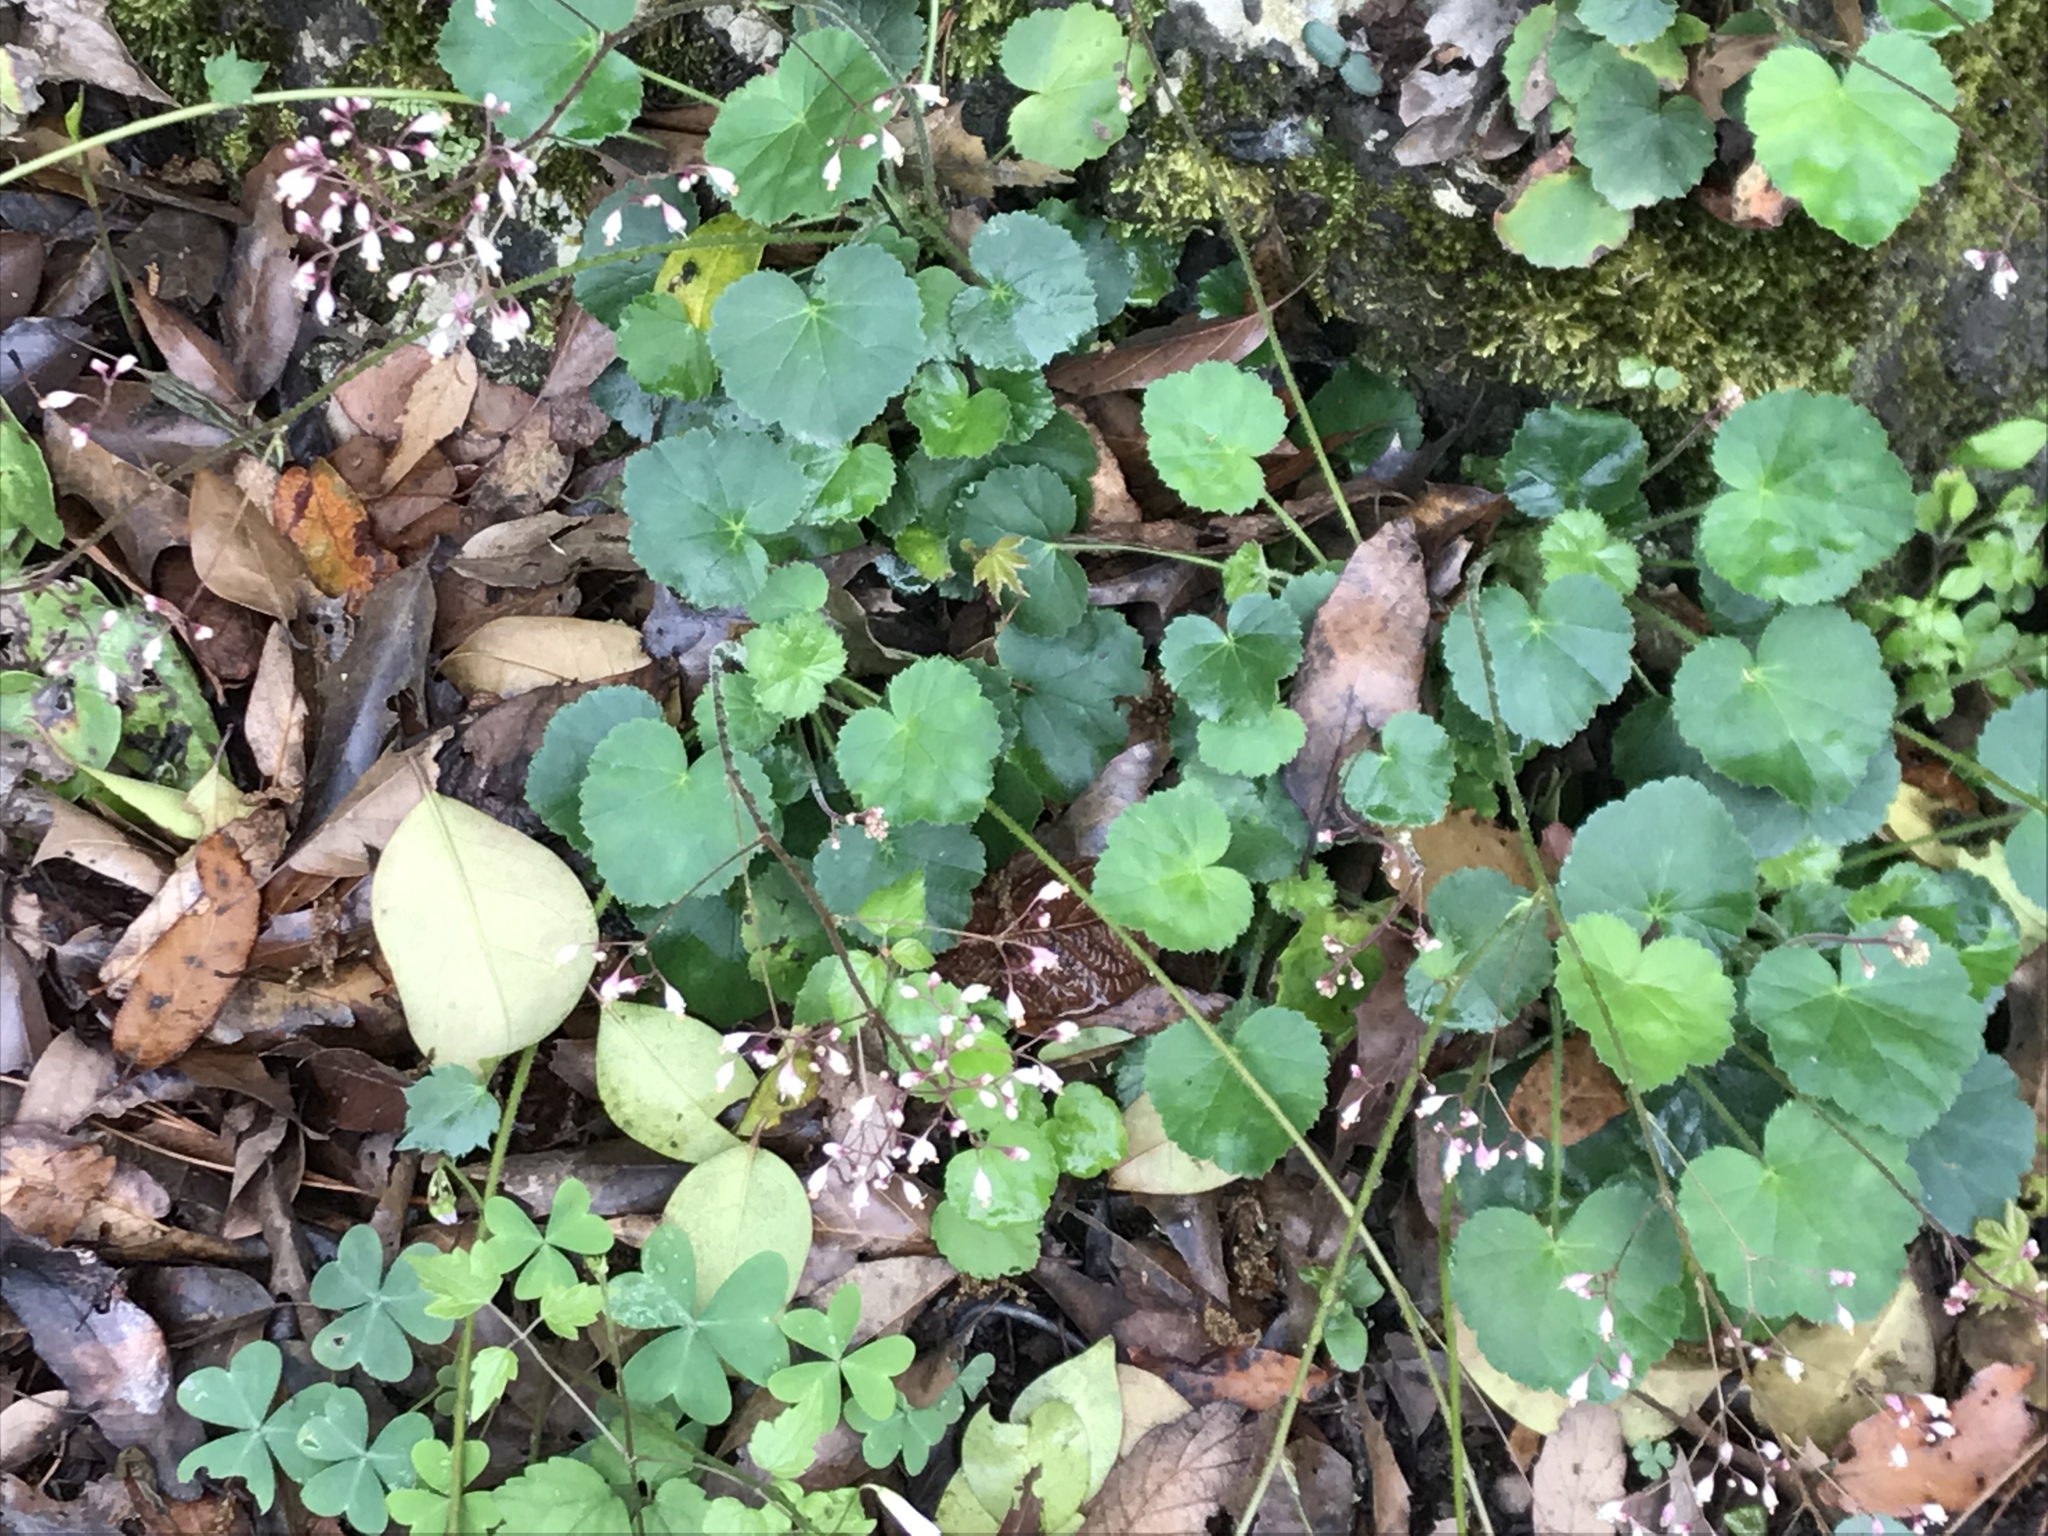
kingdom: Plantae
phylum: Tracheophyta
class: Magnoliopsida
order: Saxifragales
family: Saxifragaceae
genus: Heuchera
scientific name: Heuchera rubescens
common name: Jack-o'the-rocks
